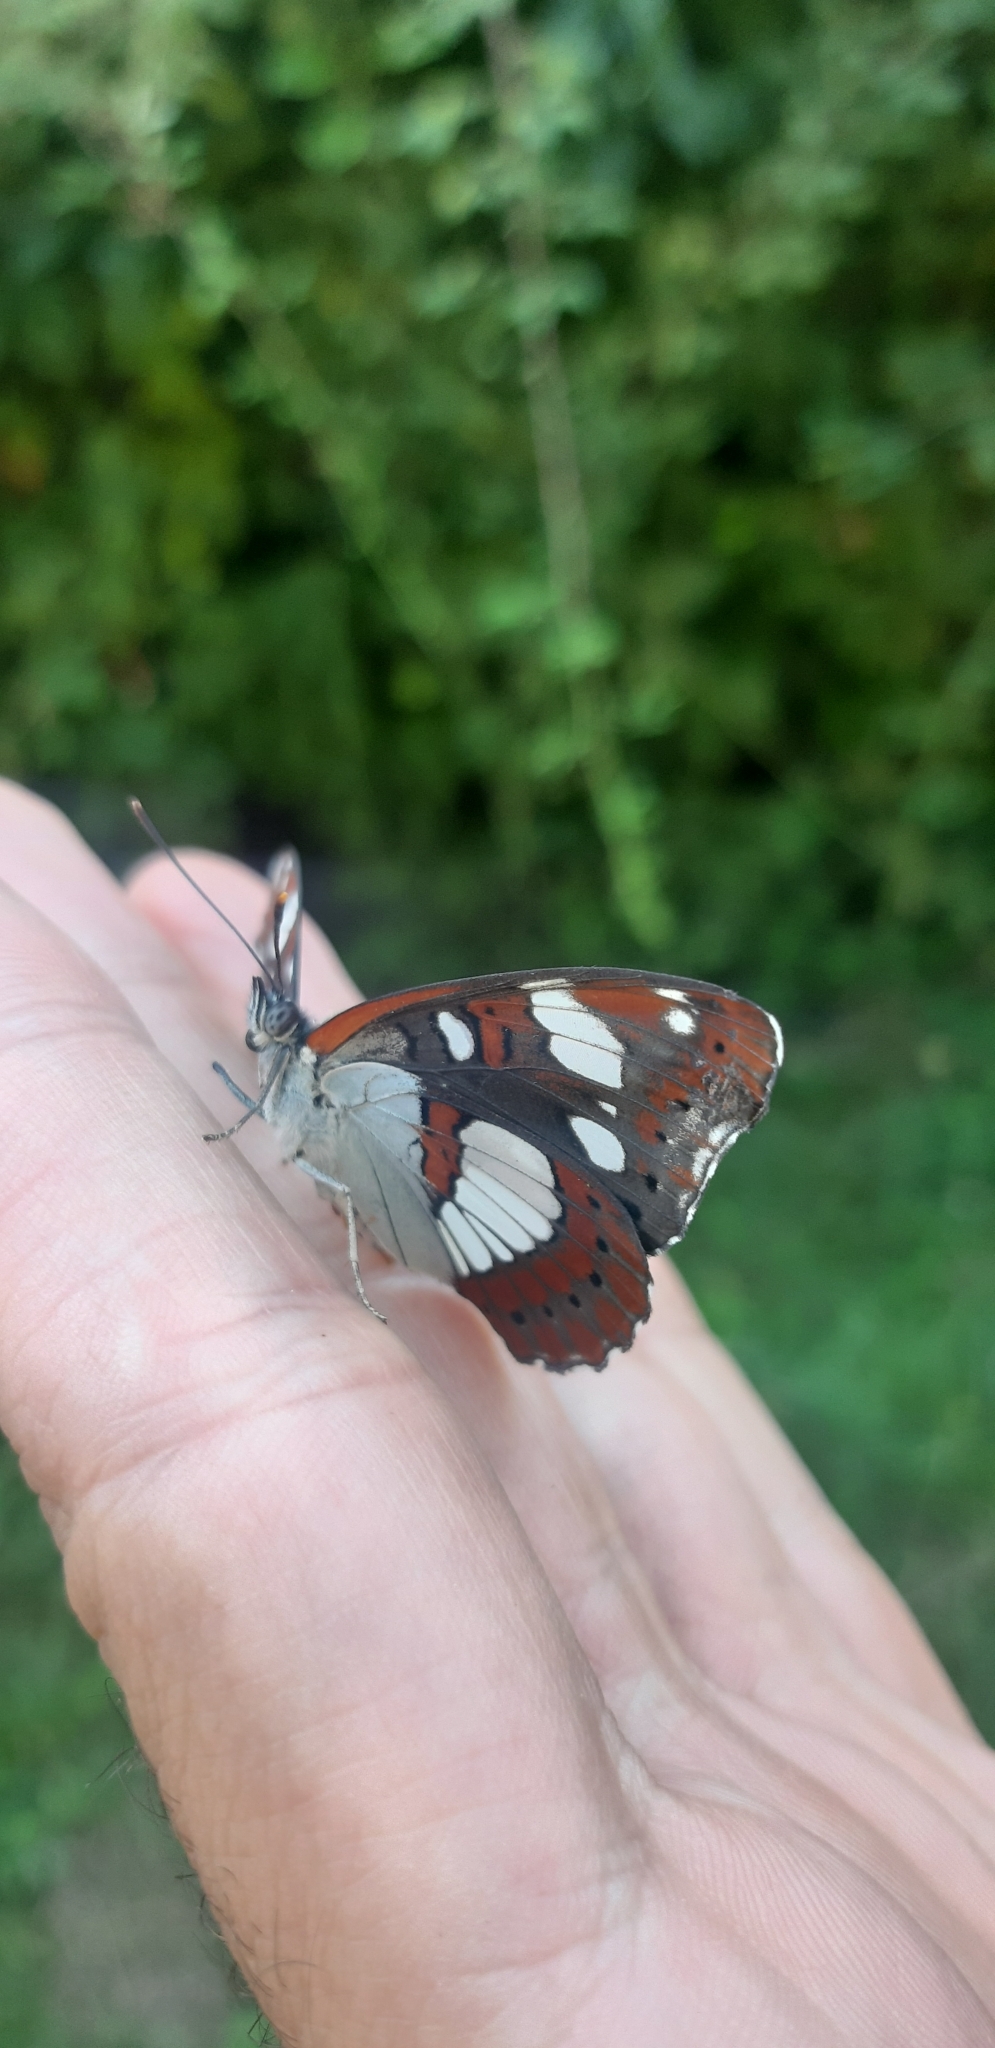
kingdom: Animalia
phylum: Arthropoda
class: Insecta
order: Lepidoptera
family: Nymphalidae
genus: Limenitis
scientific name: Limenitis reducta
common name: Southern white admiral
